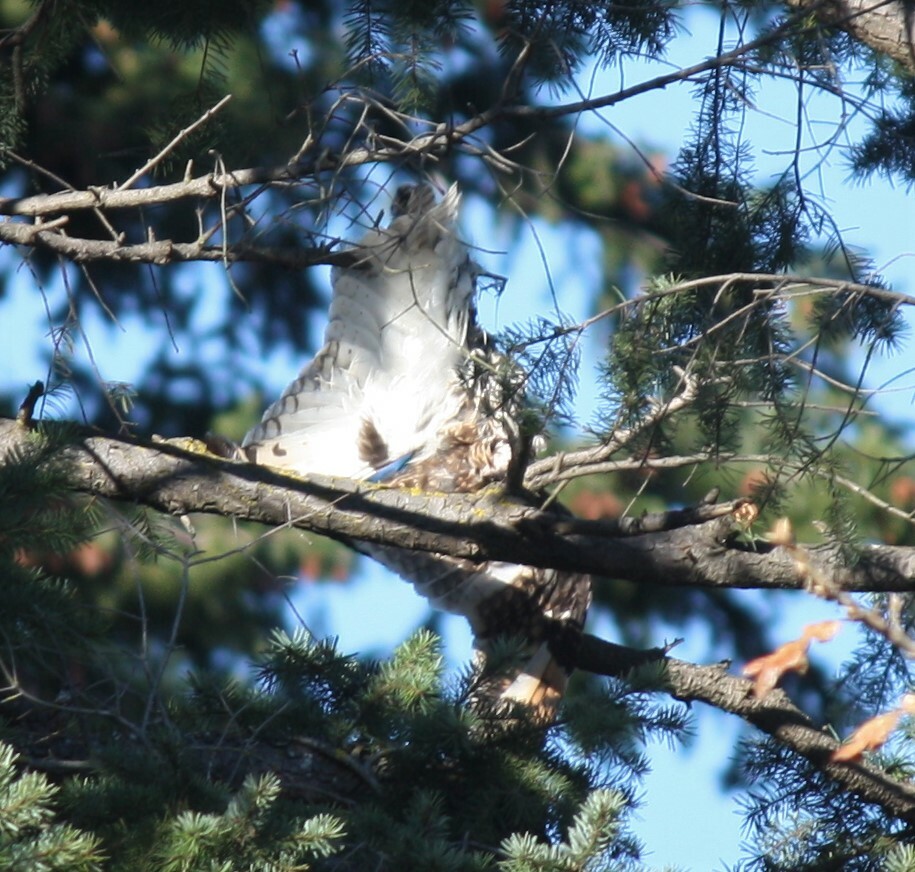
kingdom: Animalia
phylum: Chordata
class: Aves
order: Strigiformes
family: Strigidae
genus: Asio
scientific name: Asio flammeus
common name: Short-eared owl
